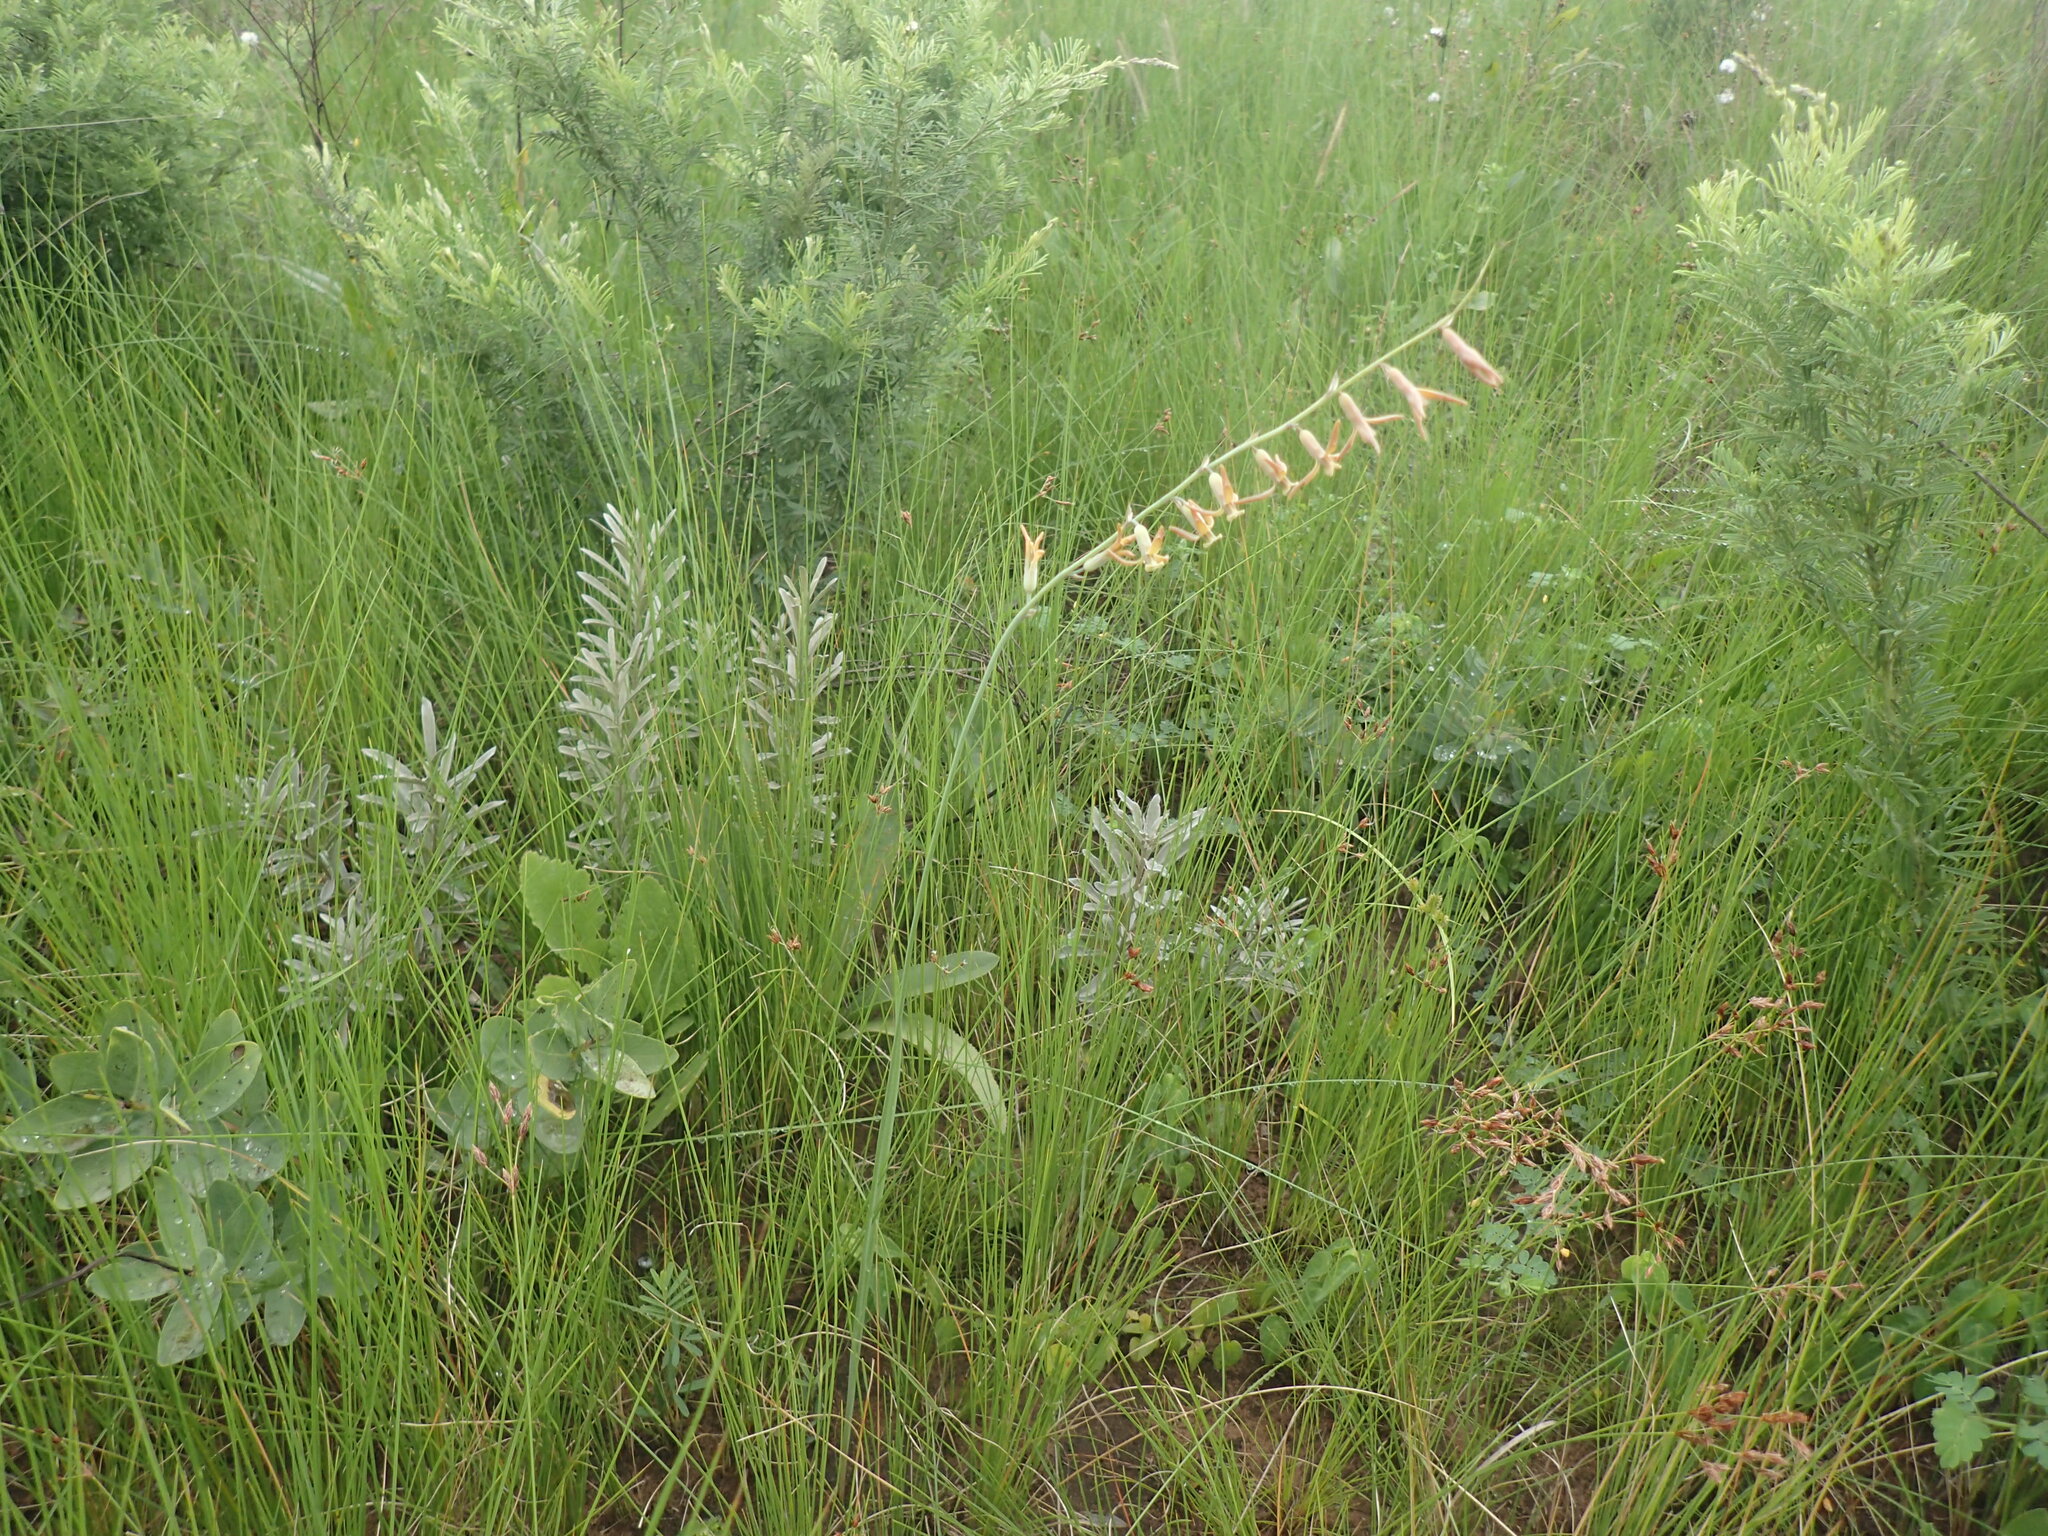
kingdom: Plantae
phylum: Tracheophyta
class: Liliopsida
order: Asparagales
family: Asparagaceae
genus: Dipcadi
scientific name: Dipcadi marlothii
